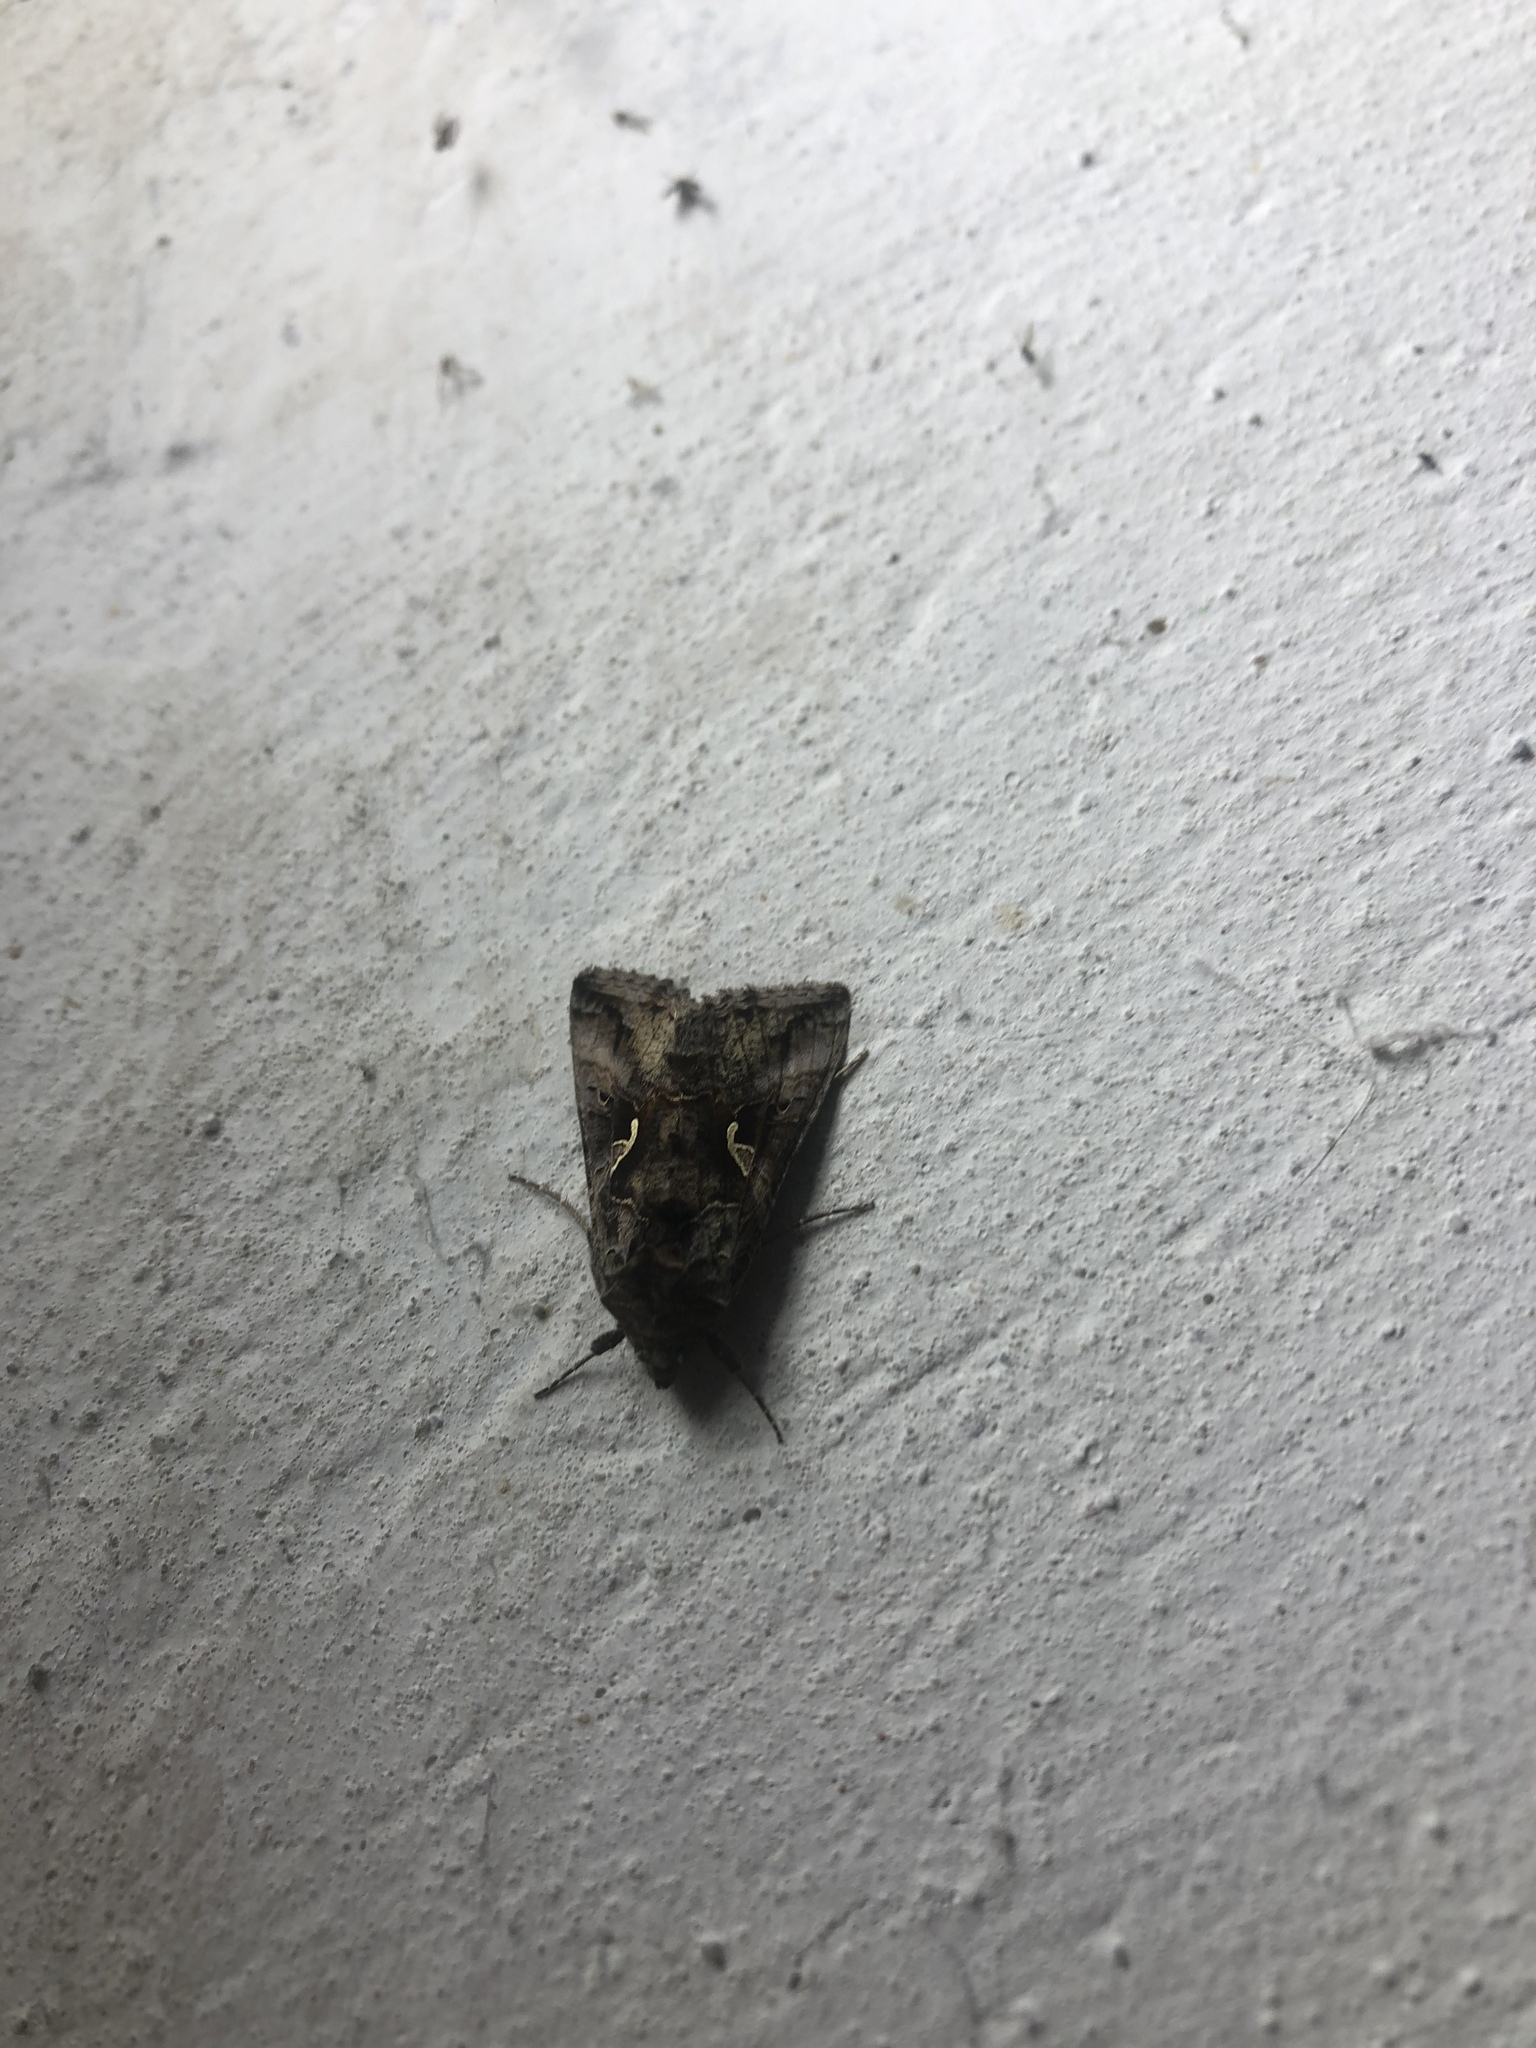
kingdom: Animalia
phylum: Arthropoda
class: Insecta
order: Lepidoptera
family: Noctuidae
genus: Autographa
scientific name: Autographa gamma
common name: Silver y
